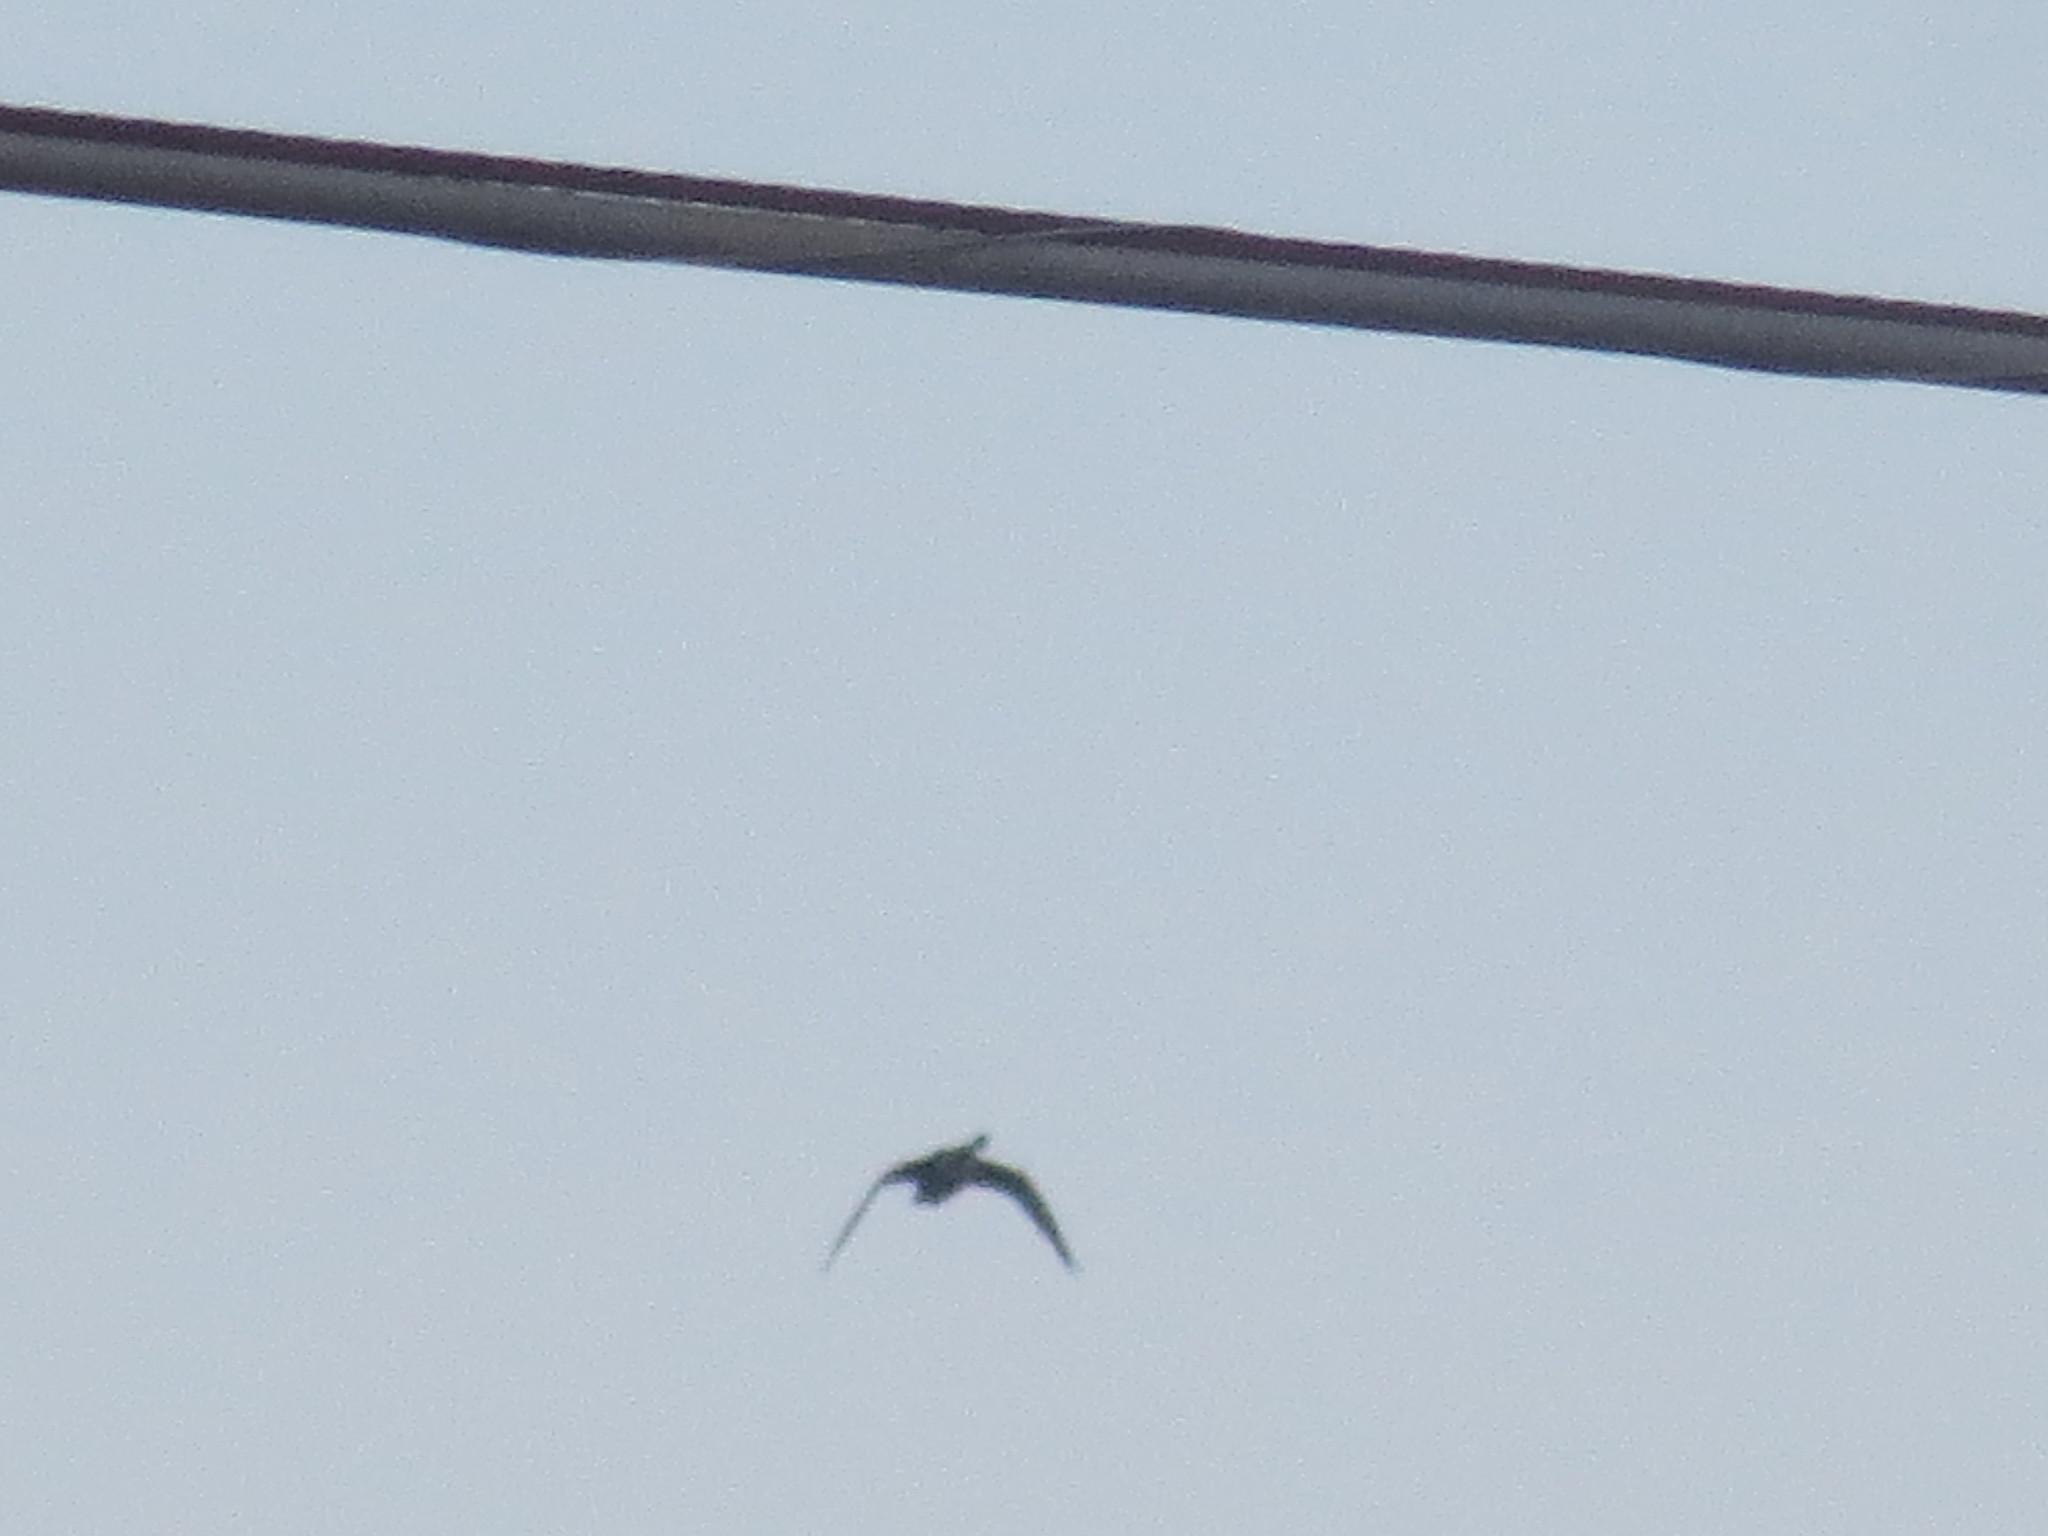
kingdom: Animalia
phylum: Chordata
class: Aves
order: Anseriformes
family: Anatidae
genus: Branta
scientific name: Branta canadensis
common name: Canada goose
